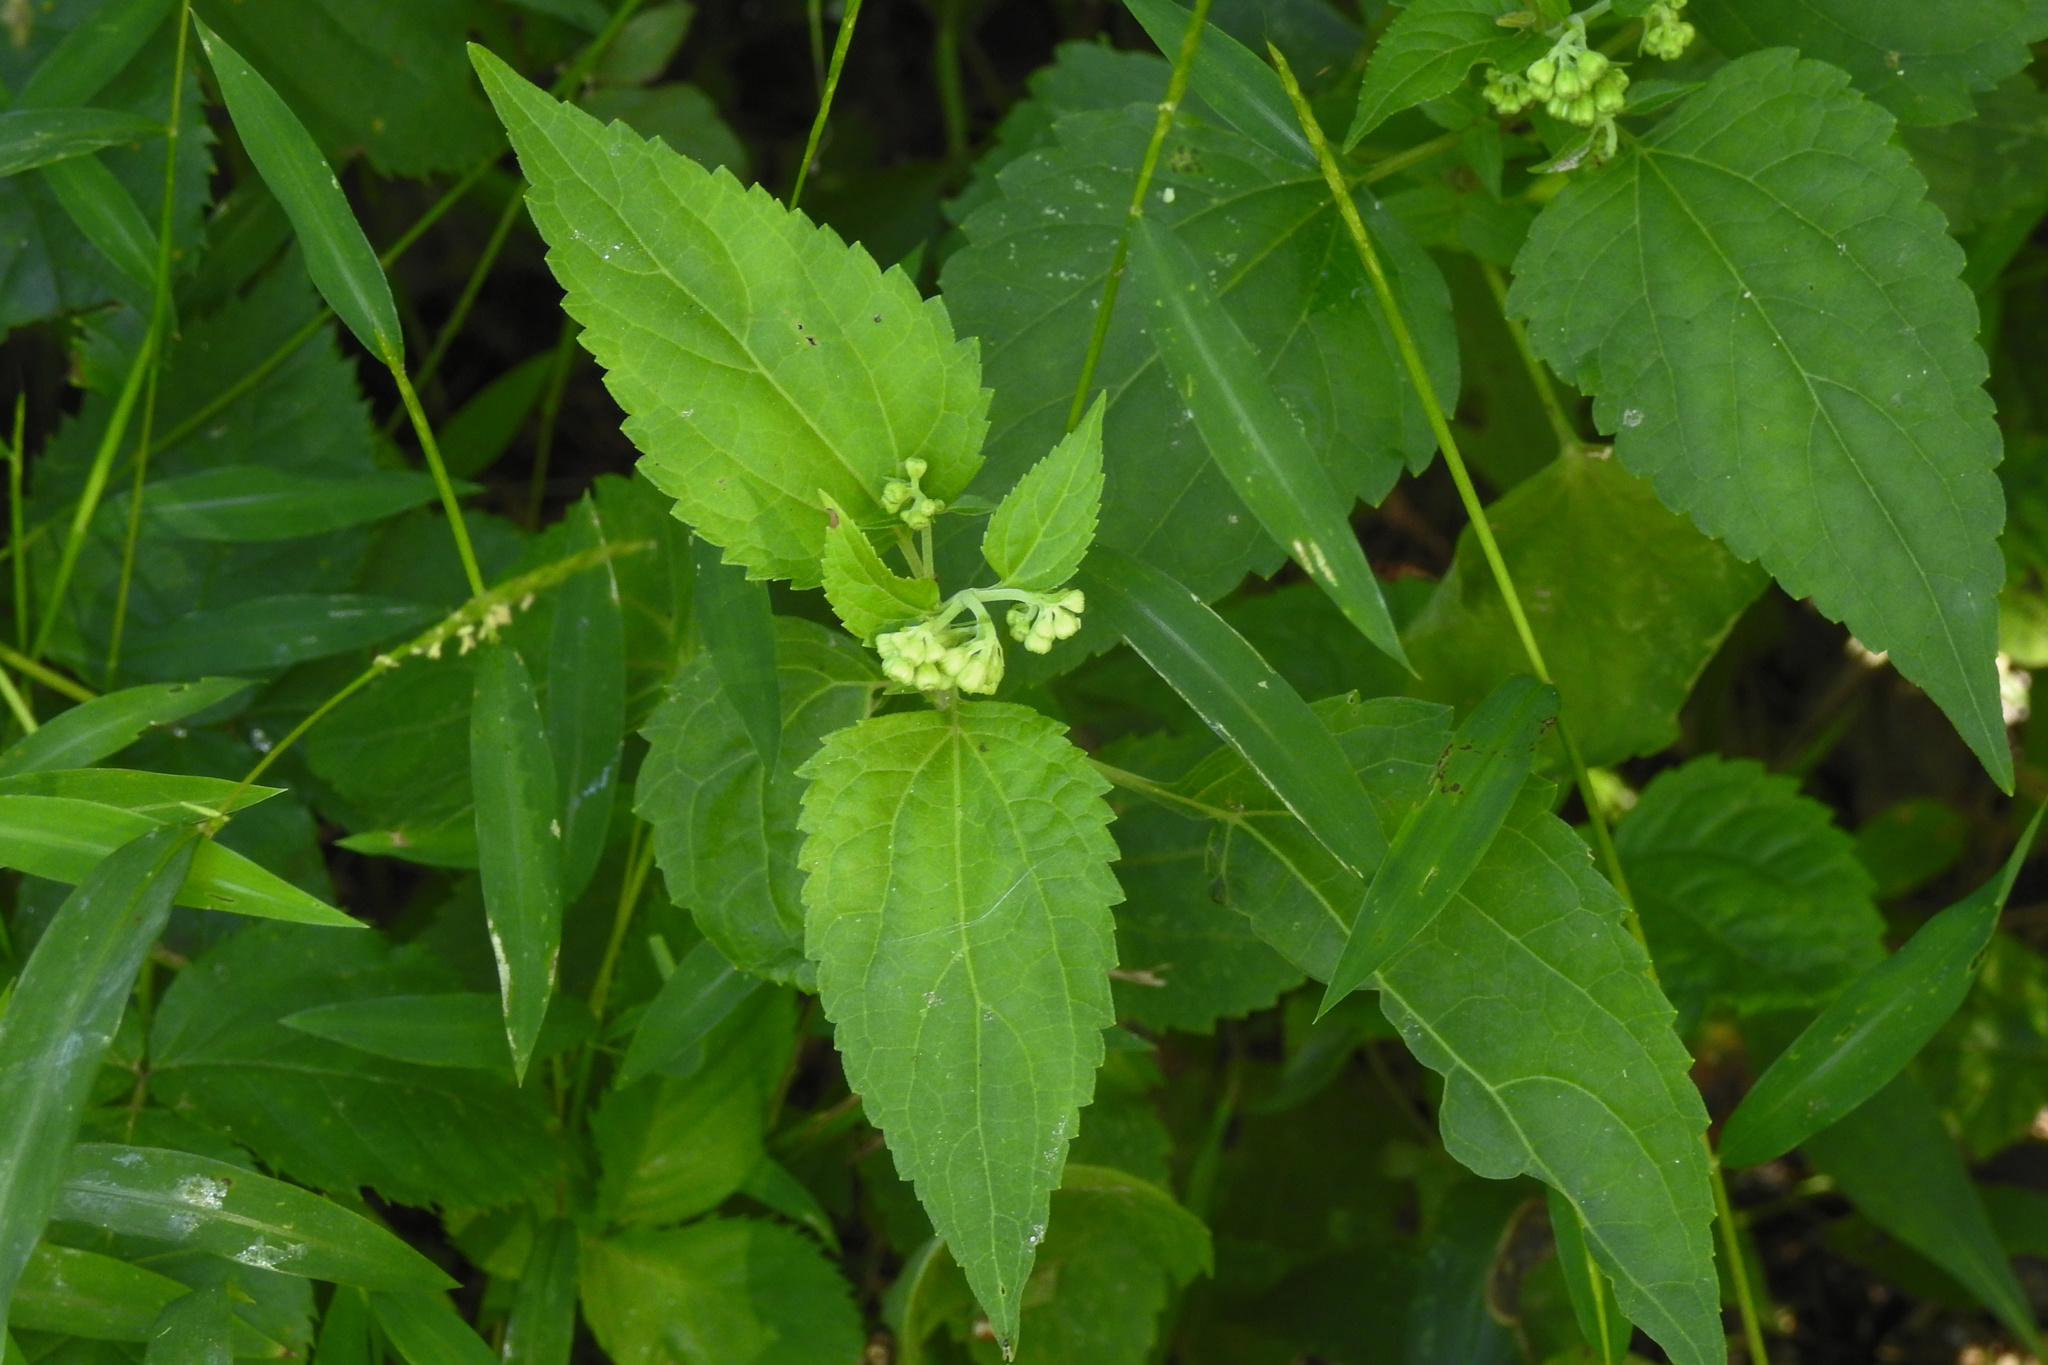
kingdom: Plantae
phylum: Tracheophyta
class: Magnoliopsida
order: Asterales
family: Asteraceae
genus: Ageratina
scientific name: Ageratina altissima
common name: White snakeroot
